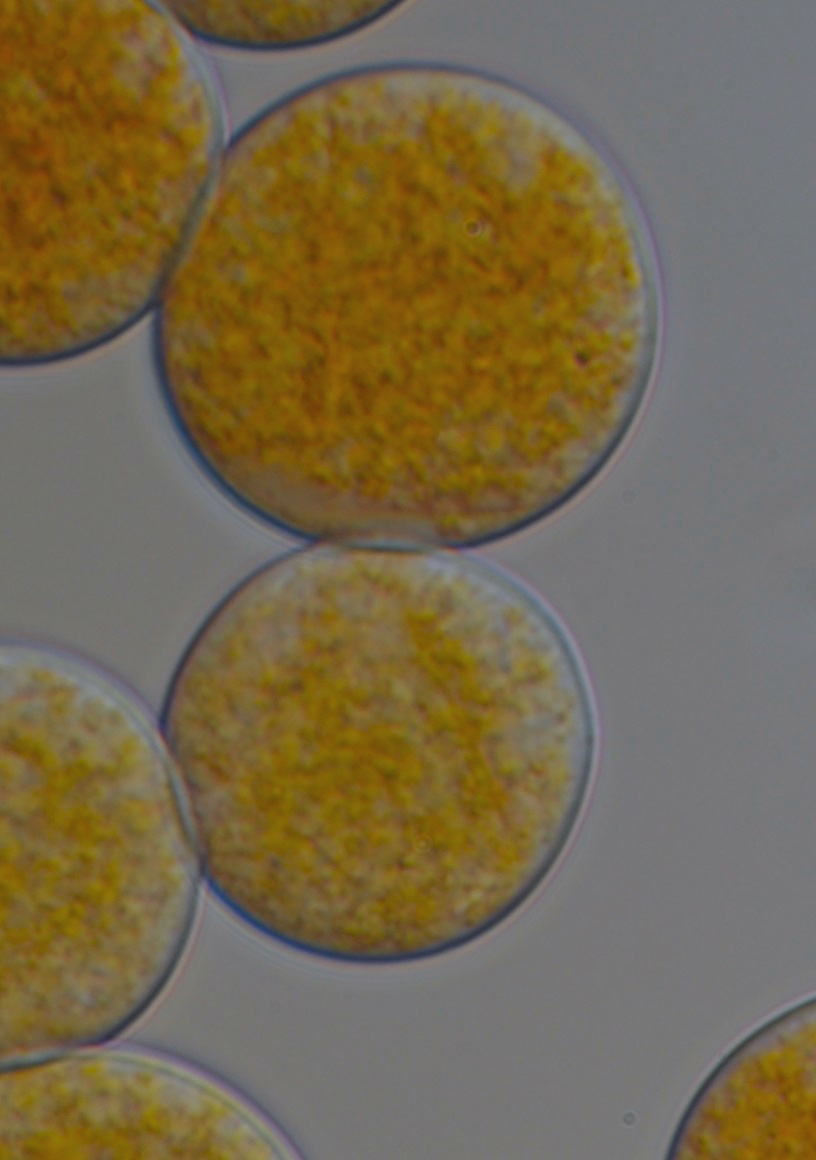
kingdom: Fungi
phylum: Chytridiomycota
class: Chytridiomycetes
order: Chytridiales
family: Synchytriaceae
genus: Synchytrium
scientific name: Synchytrium psophocarpi
